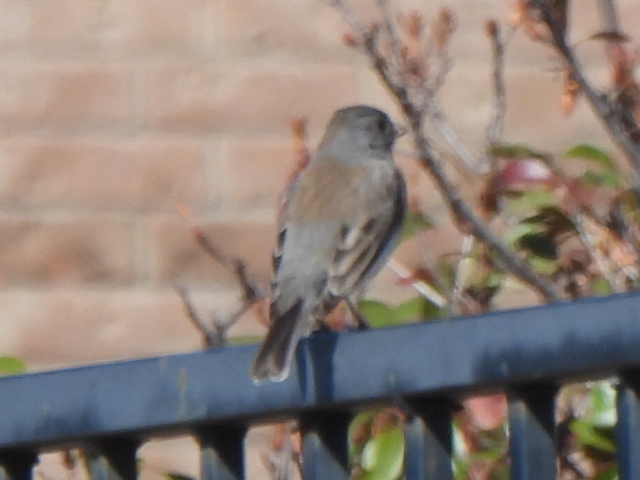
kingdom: Animalia
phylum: Chordata
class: Aves
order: Passeriformes
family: Passerellidae
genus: Junco
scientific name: Junco hyemalis
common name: Dark-eyed junco
